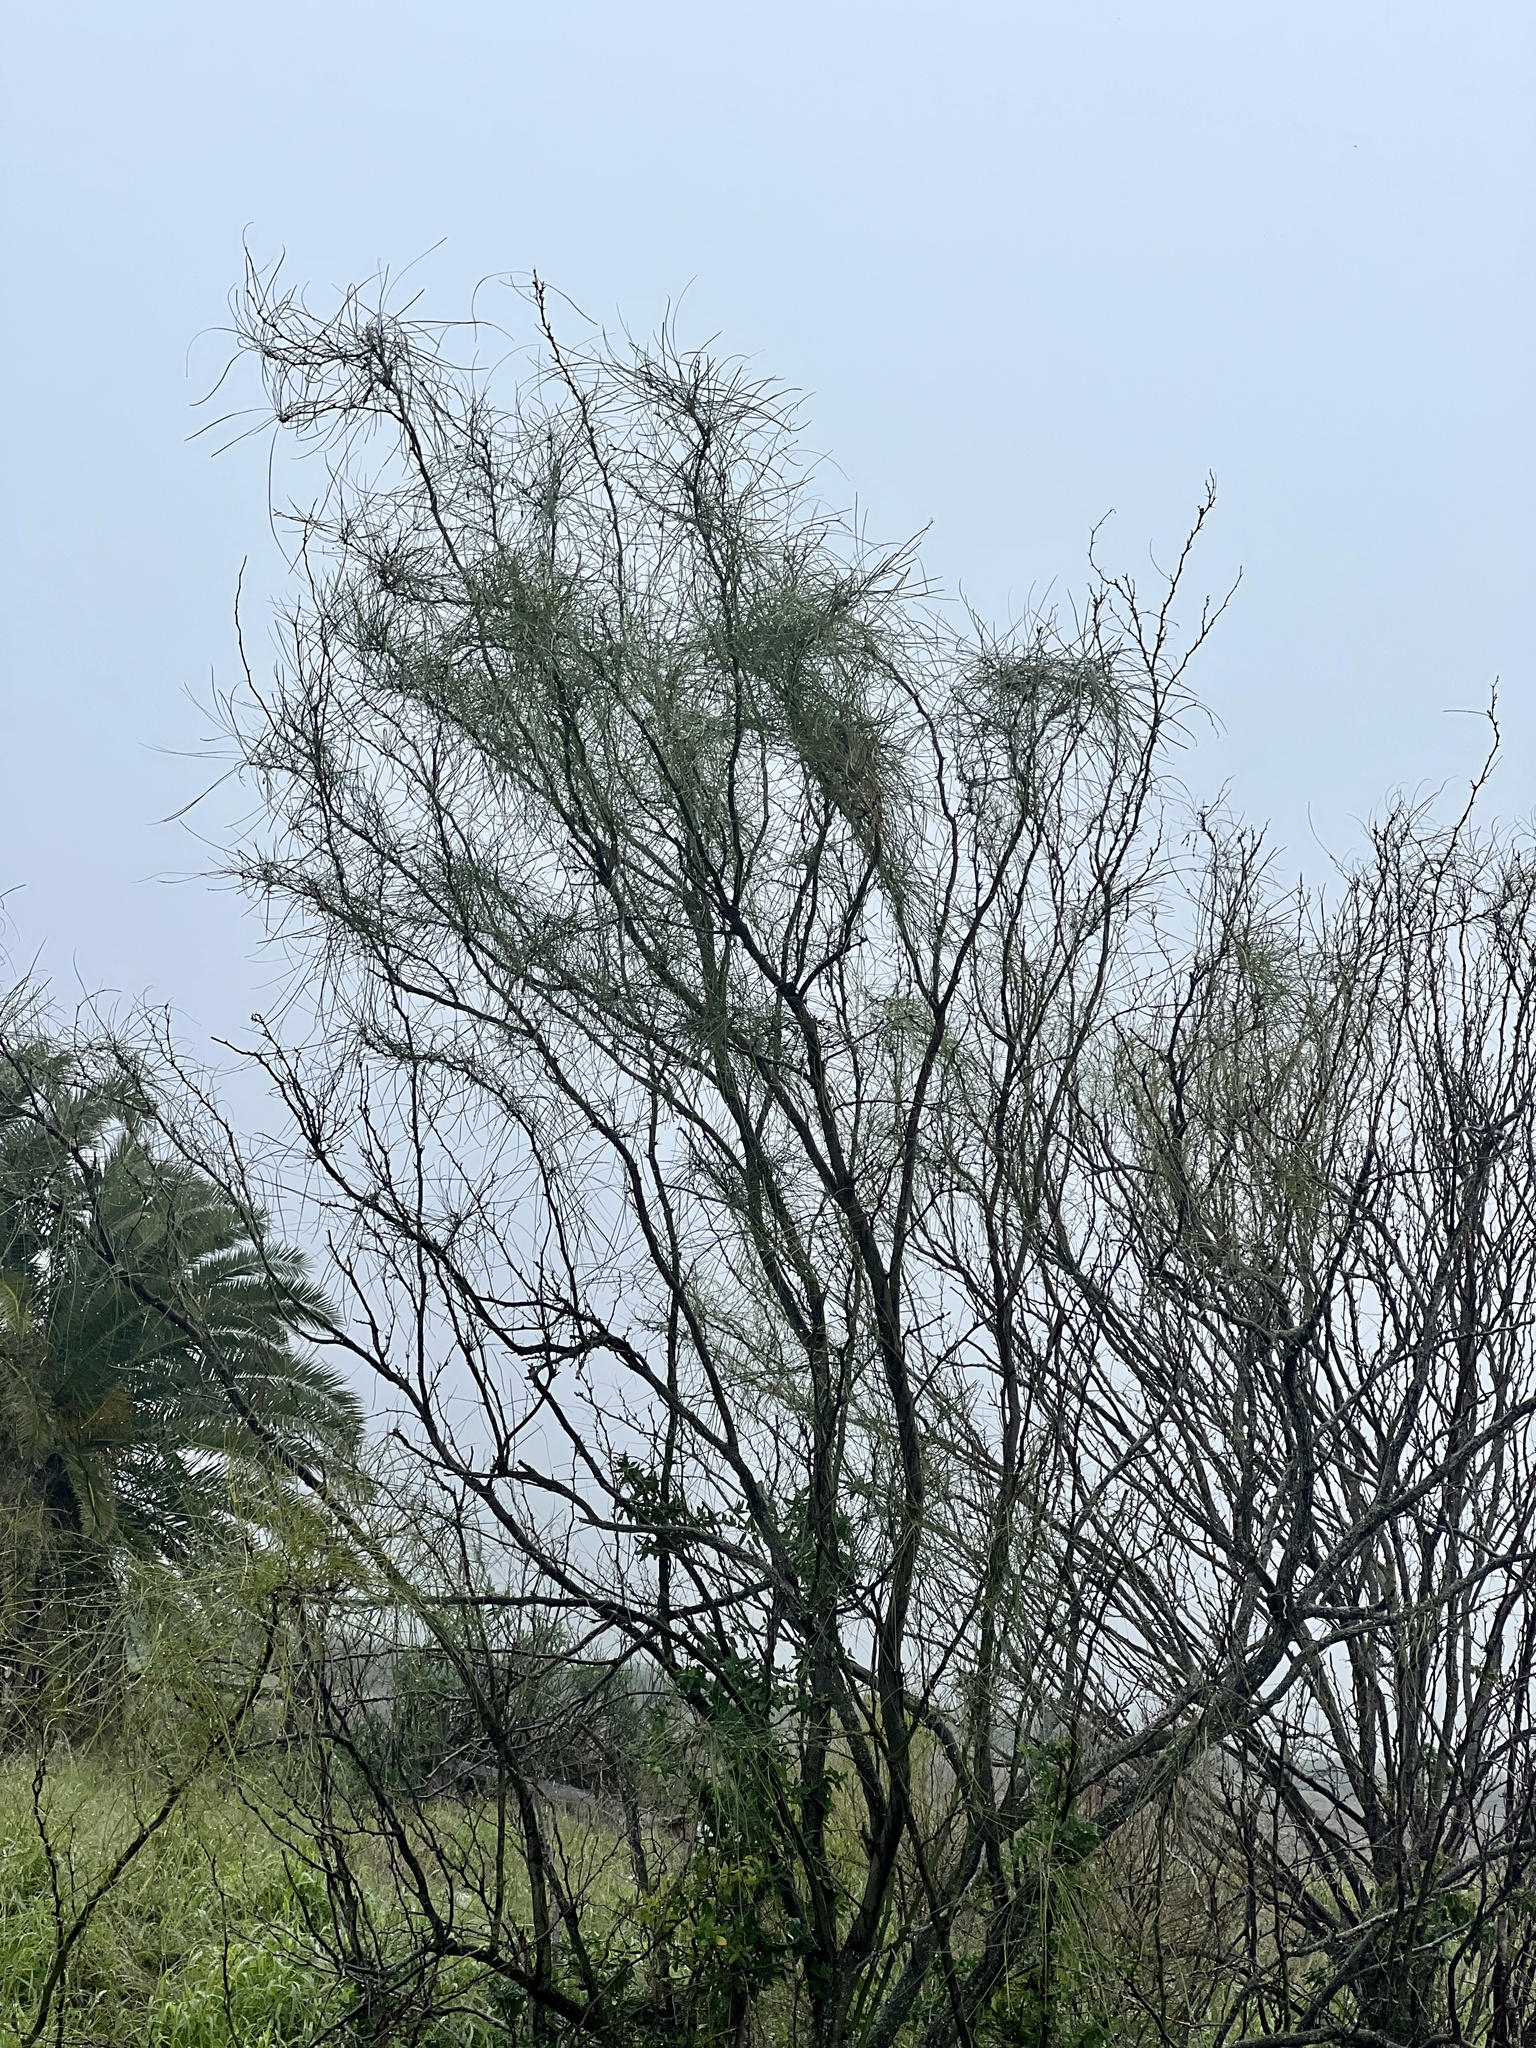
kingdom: Plantae
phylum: Tracheophyta
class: Magnoliopsida
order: Fabales
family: Fabaceae
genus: Parkinsonia
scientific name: Parkinsonia aculeata
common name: Jerusalem thorn
